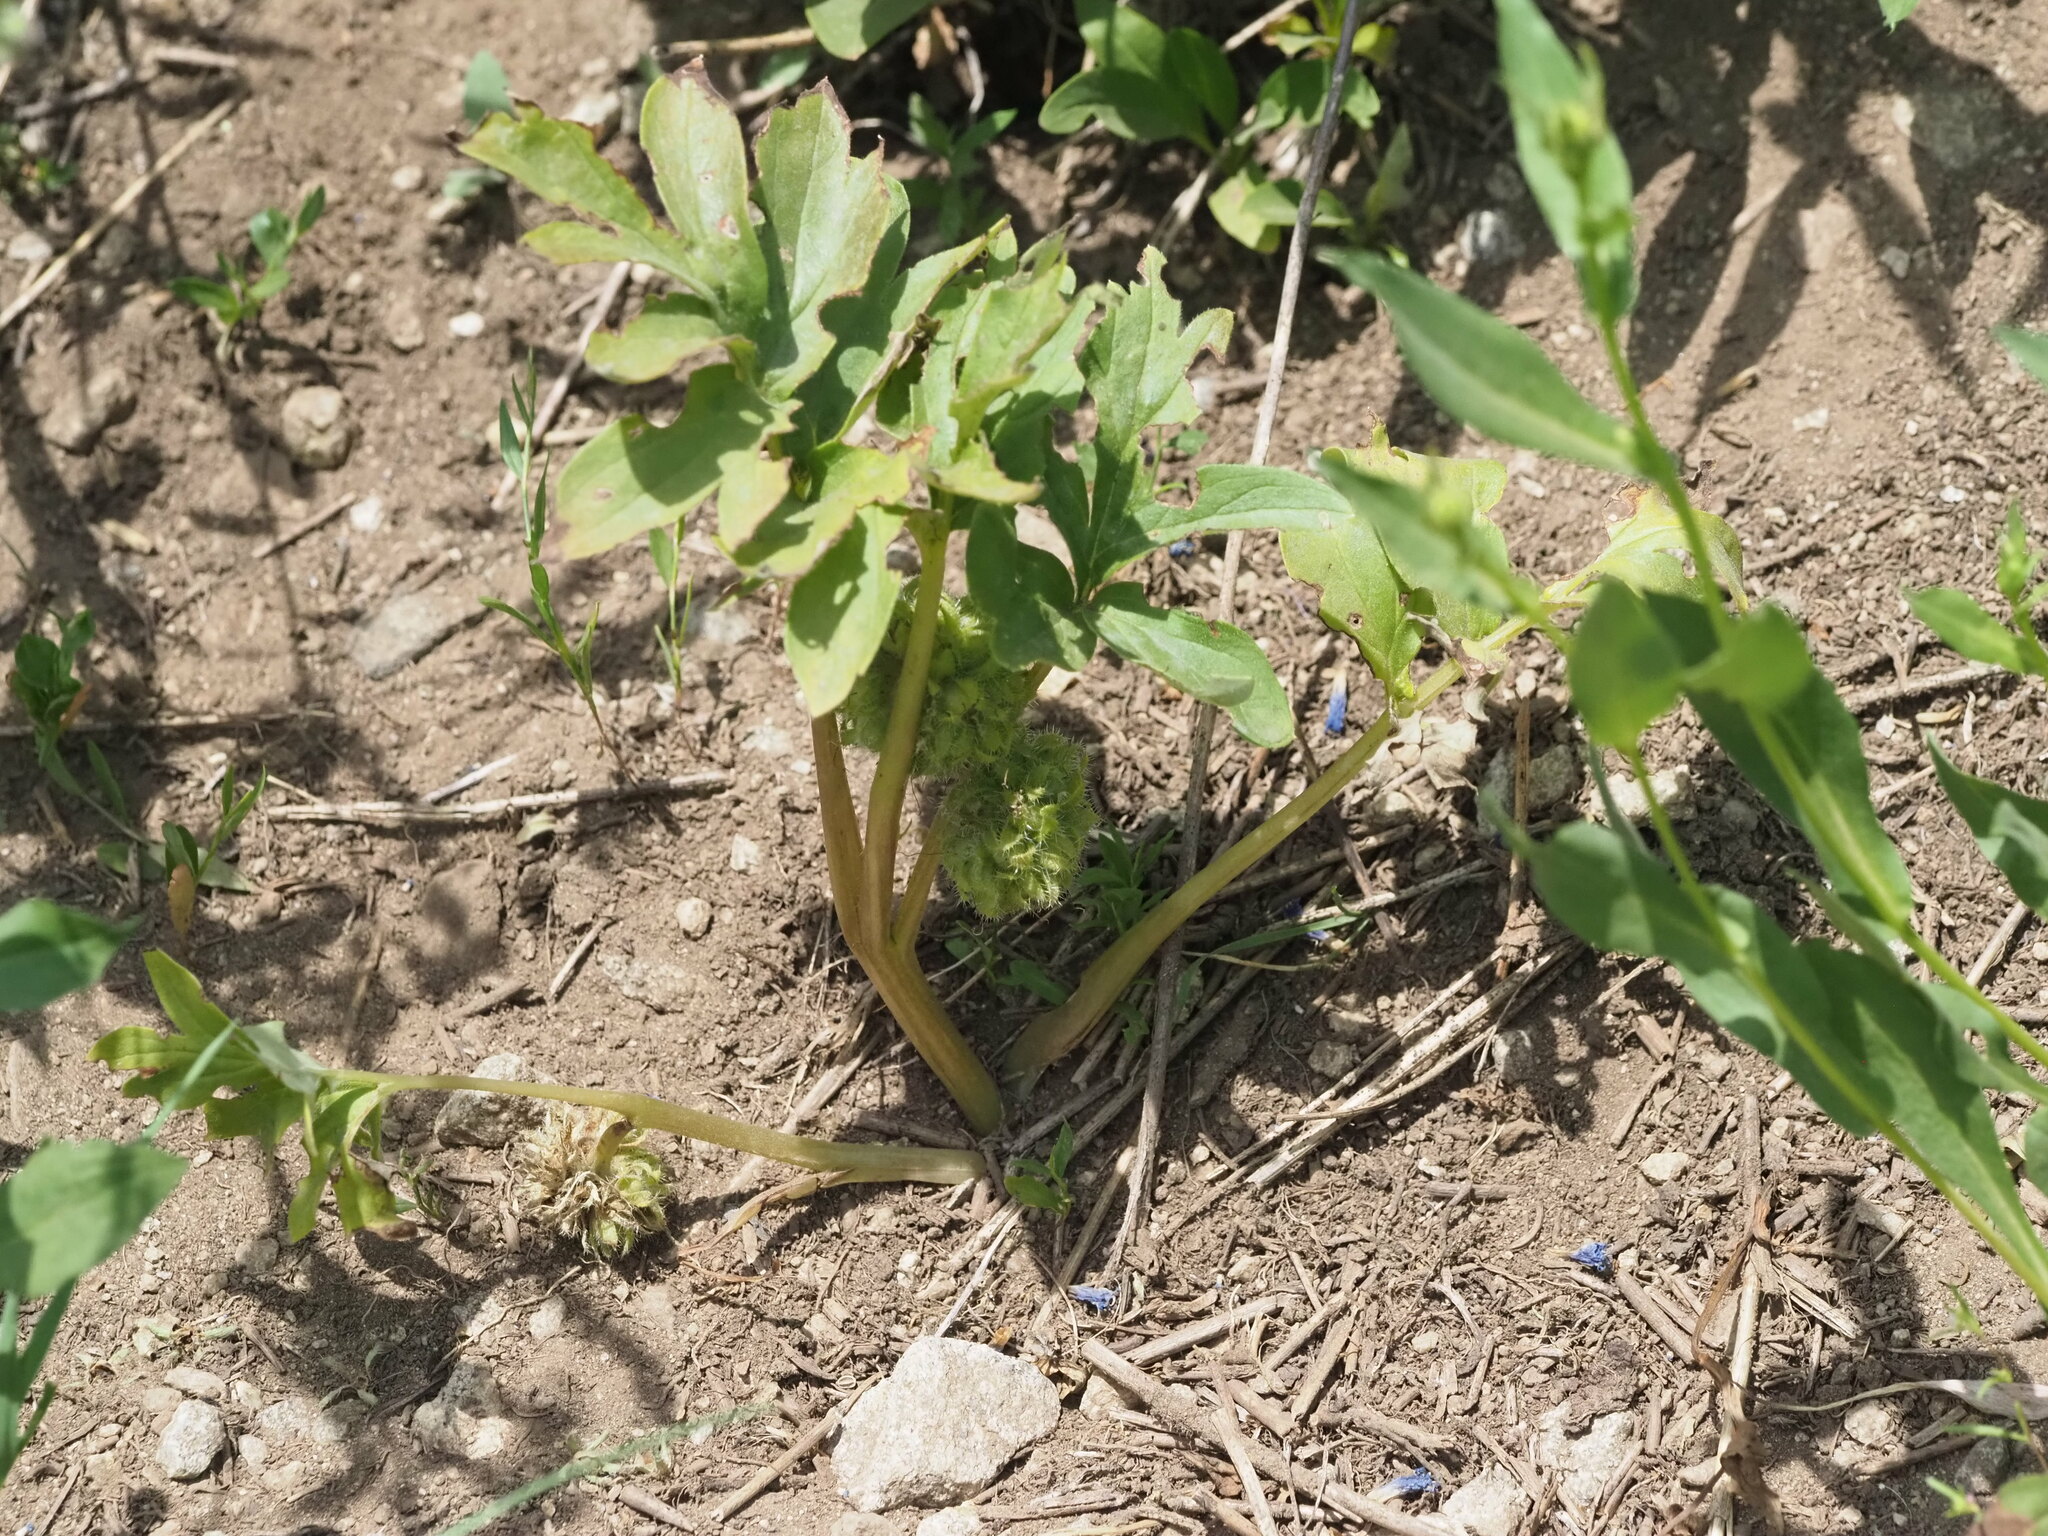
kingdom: Plantae
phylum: Tracheophyta
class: Magnoliopsida
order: Boraginales
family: Hydrophyllaceae
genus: Hydrophyllum
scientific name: Hydrophyllum capitatum
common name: Woollen-breeches
